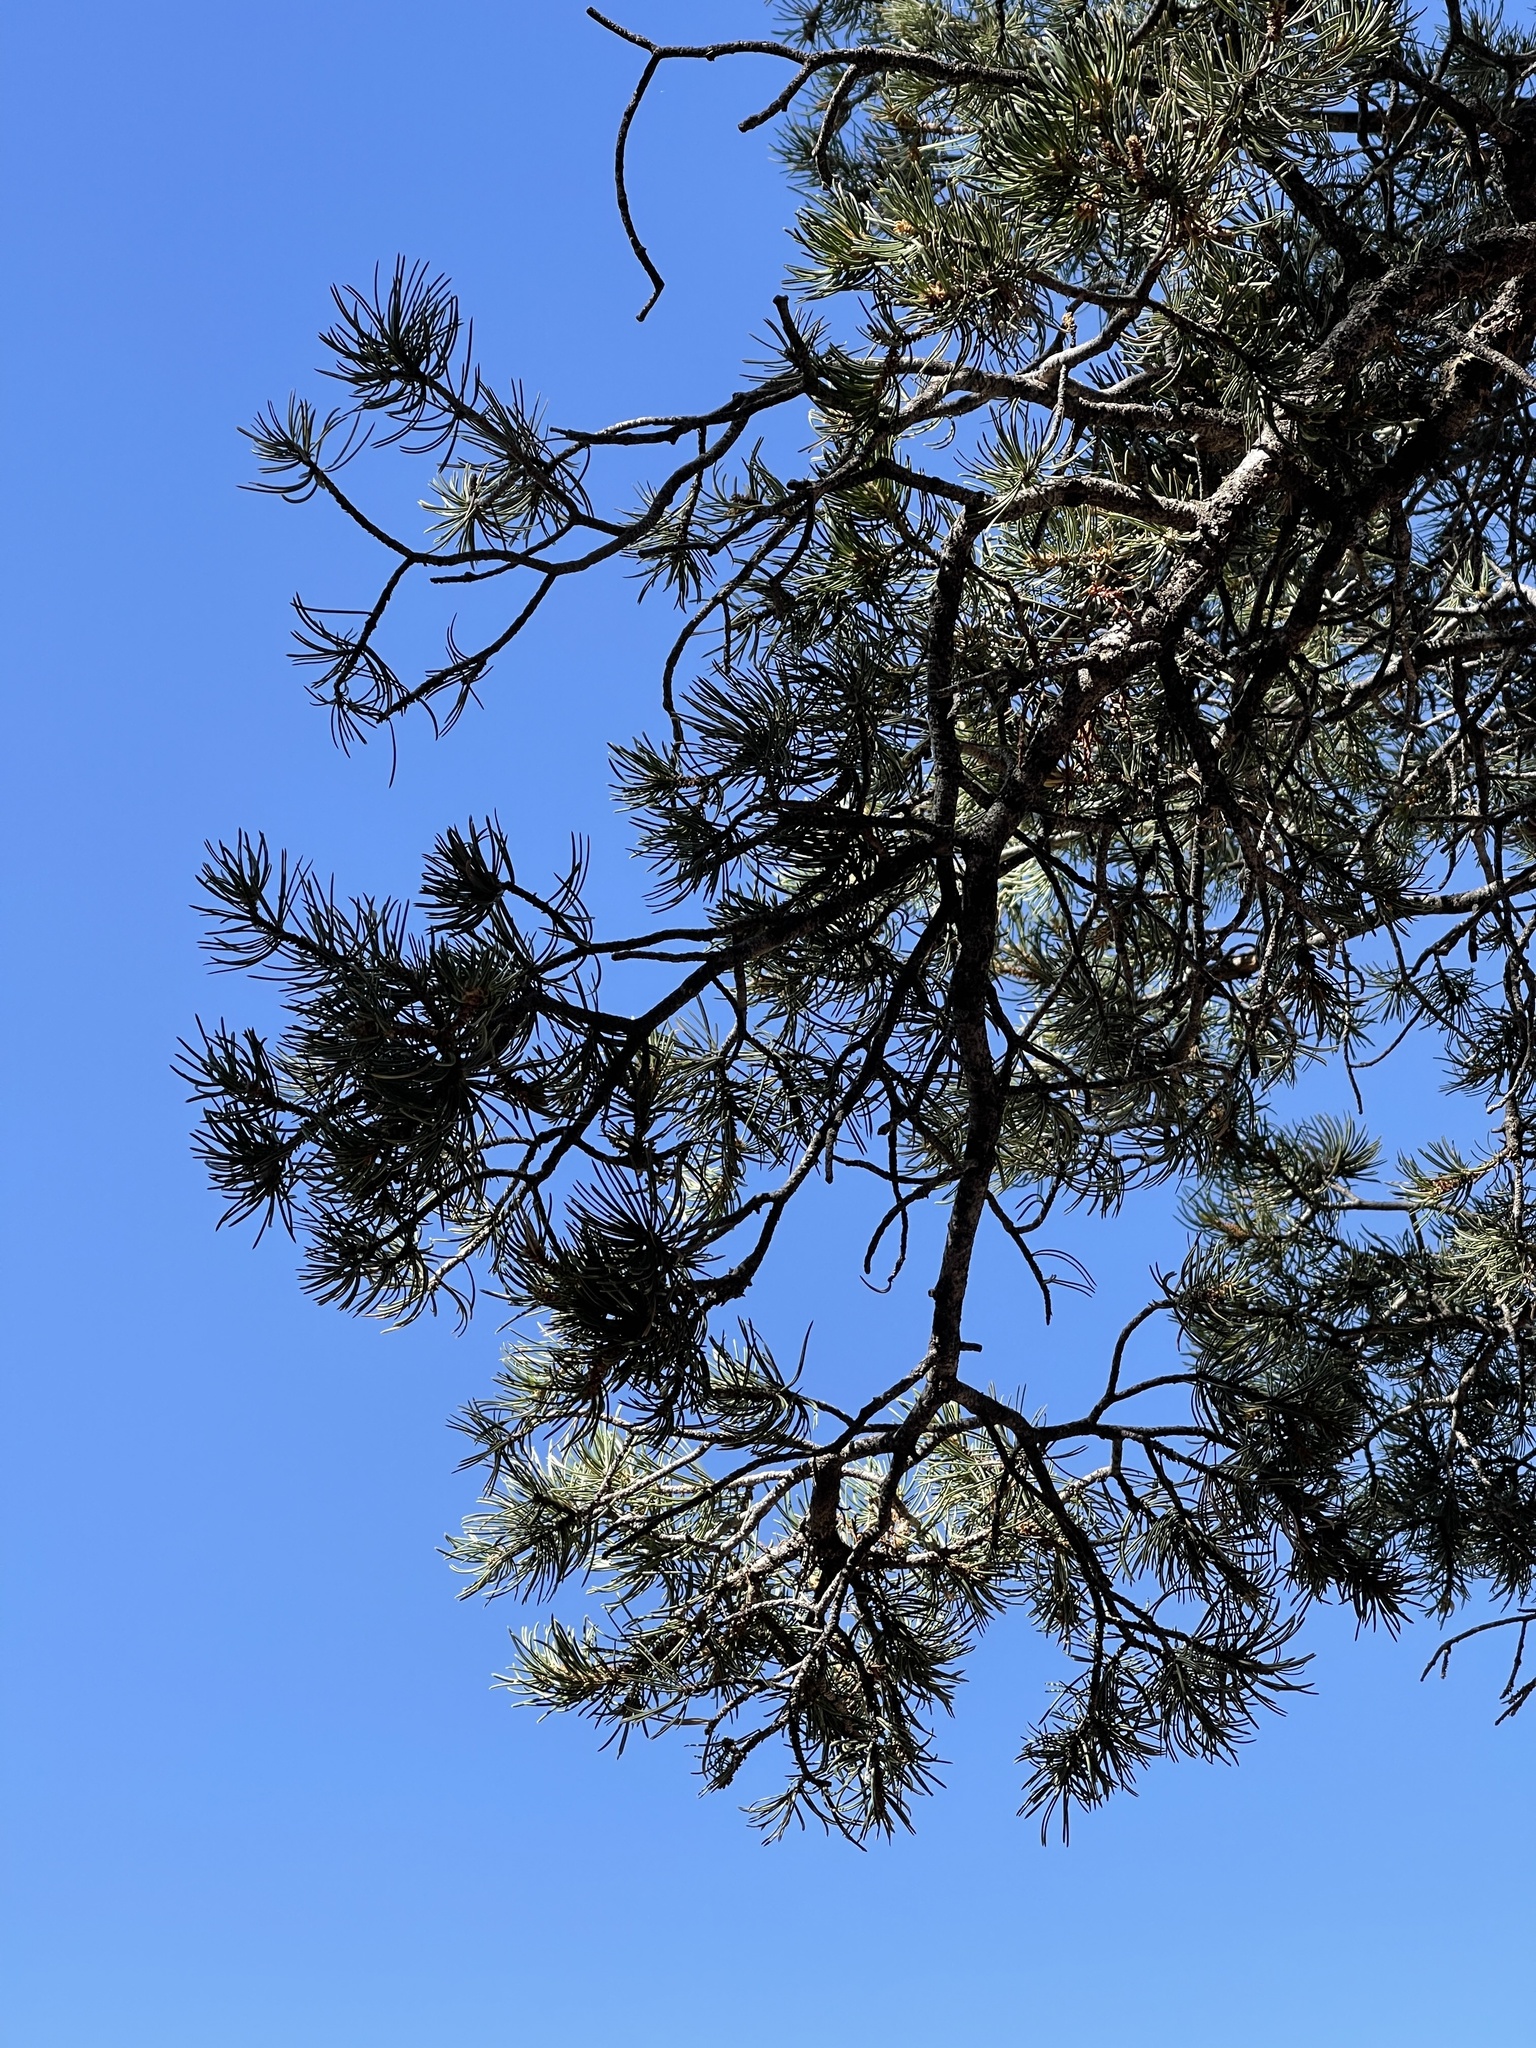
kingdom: Plantae
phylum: Tracheophyta
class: Pinopsida
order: Pinales
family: Pinaceae
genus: Pinus
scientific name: Pinus edulis
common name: Colorado pinyon
